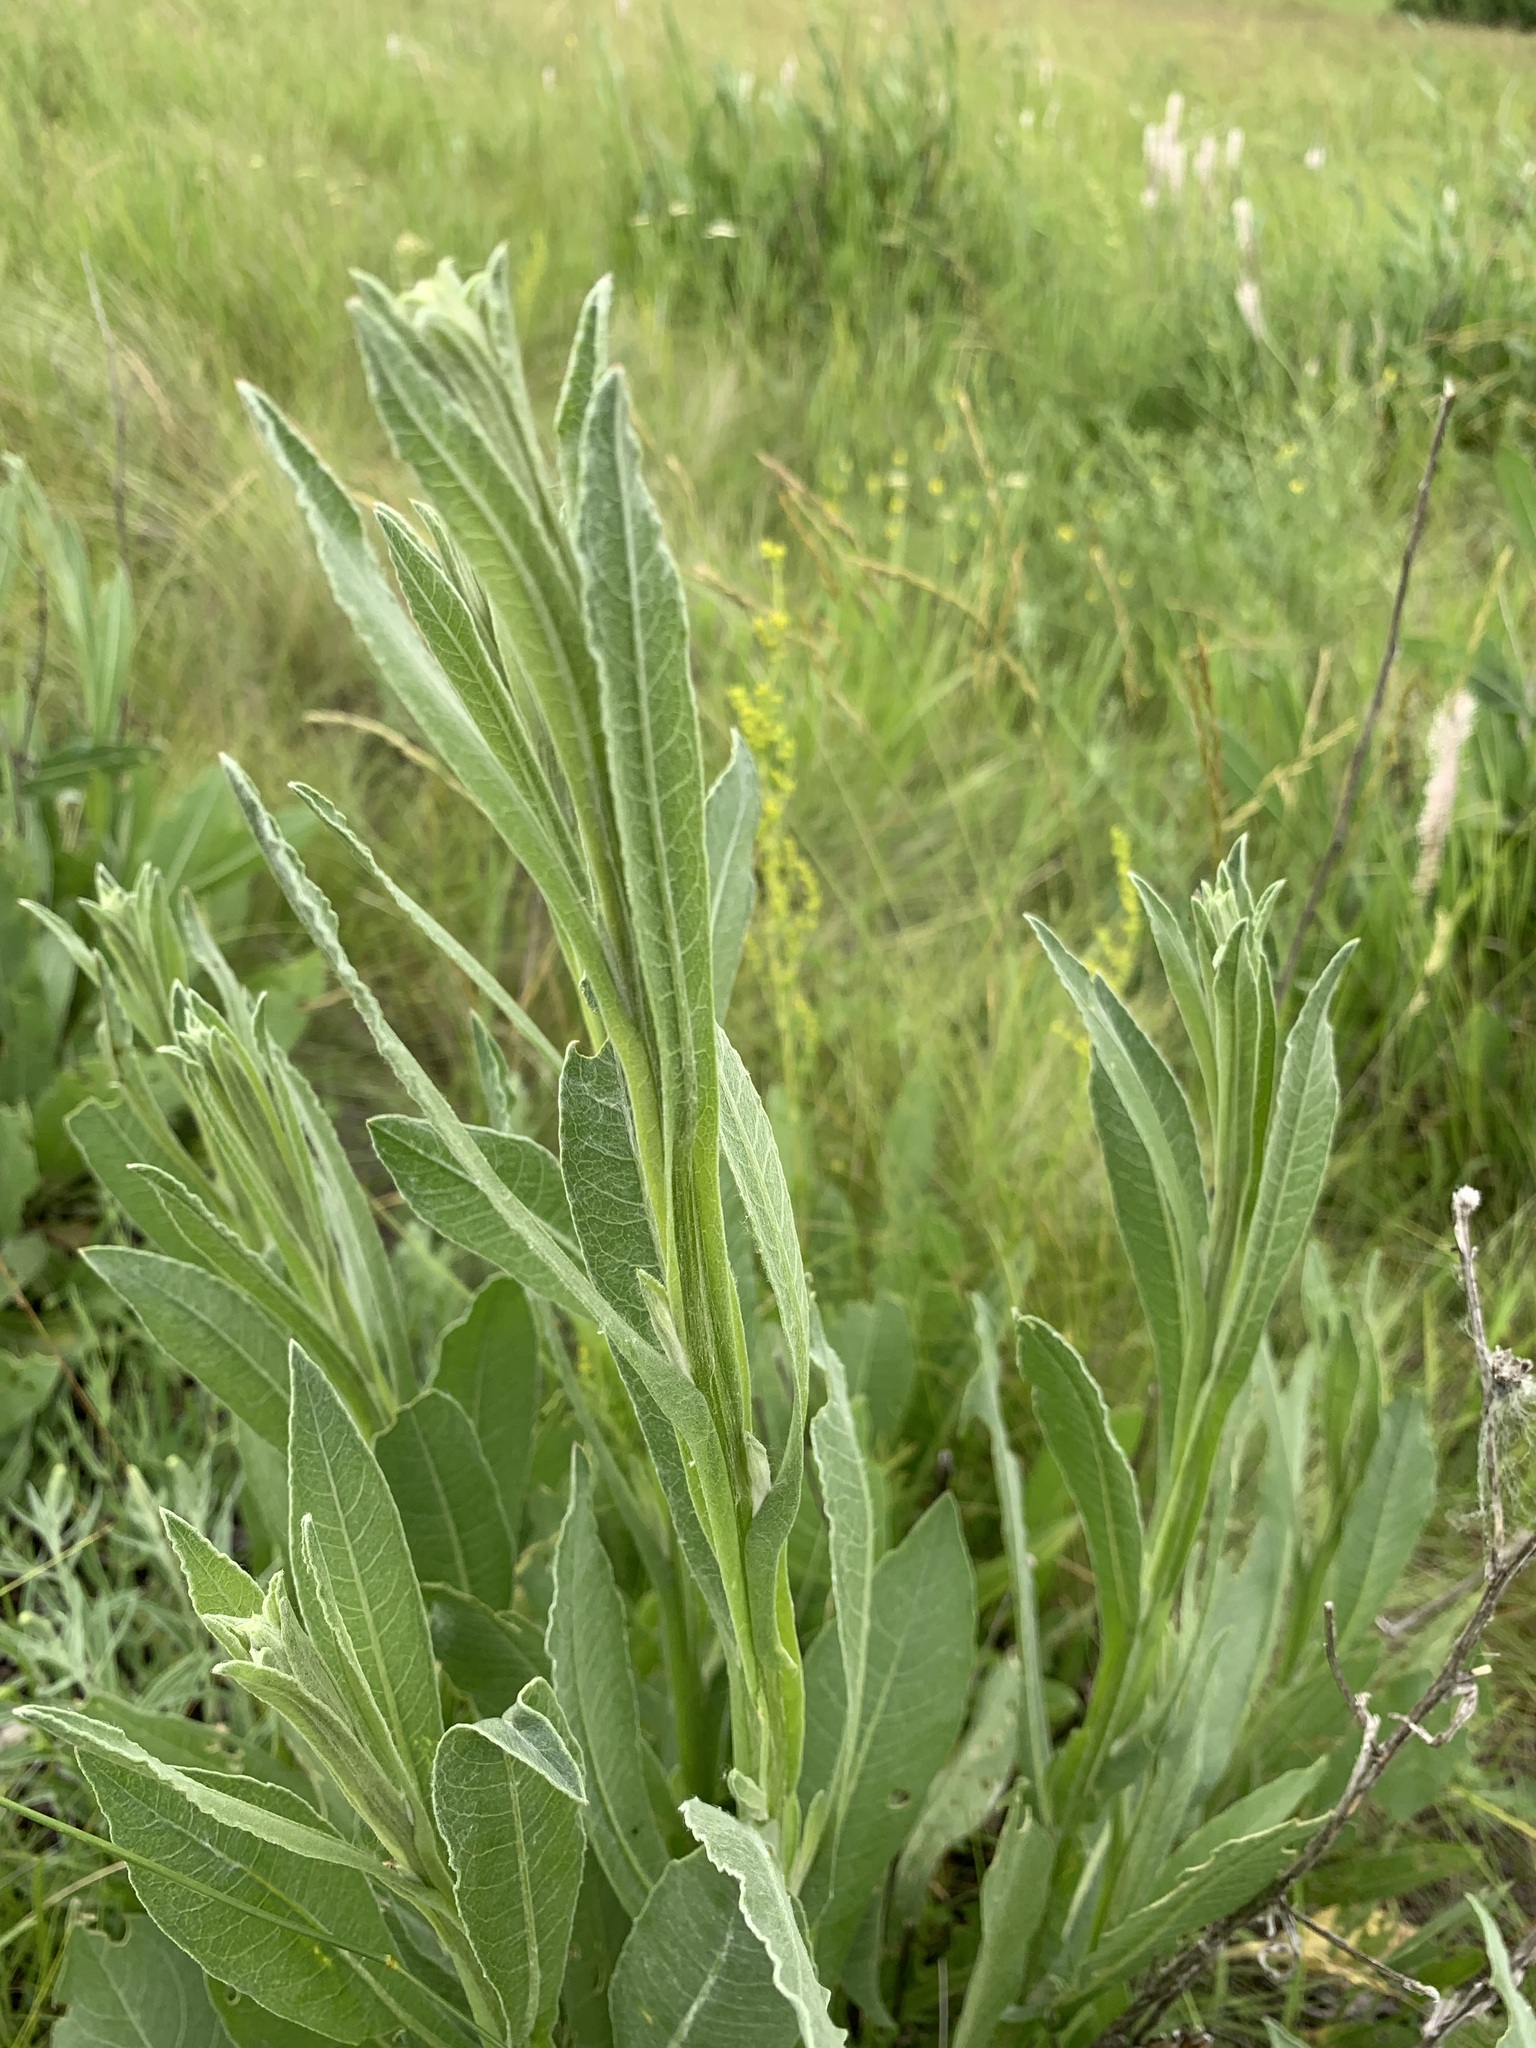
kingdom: Plantae
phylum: Tracheophyta
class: Magnoliopsida
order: Asterales
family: Asteraceae
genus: Centaurea
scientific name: Centaurea glastifolia
